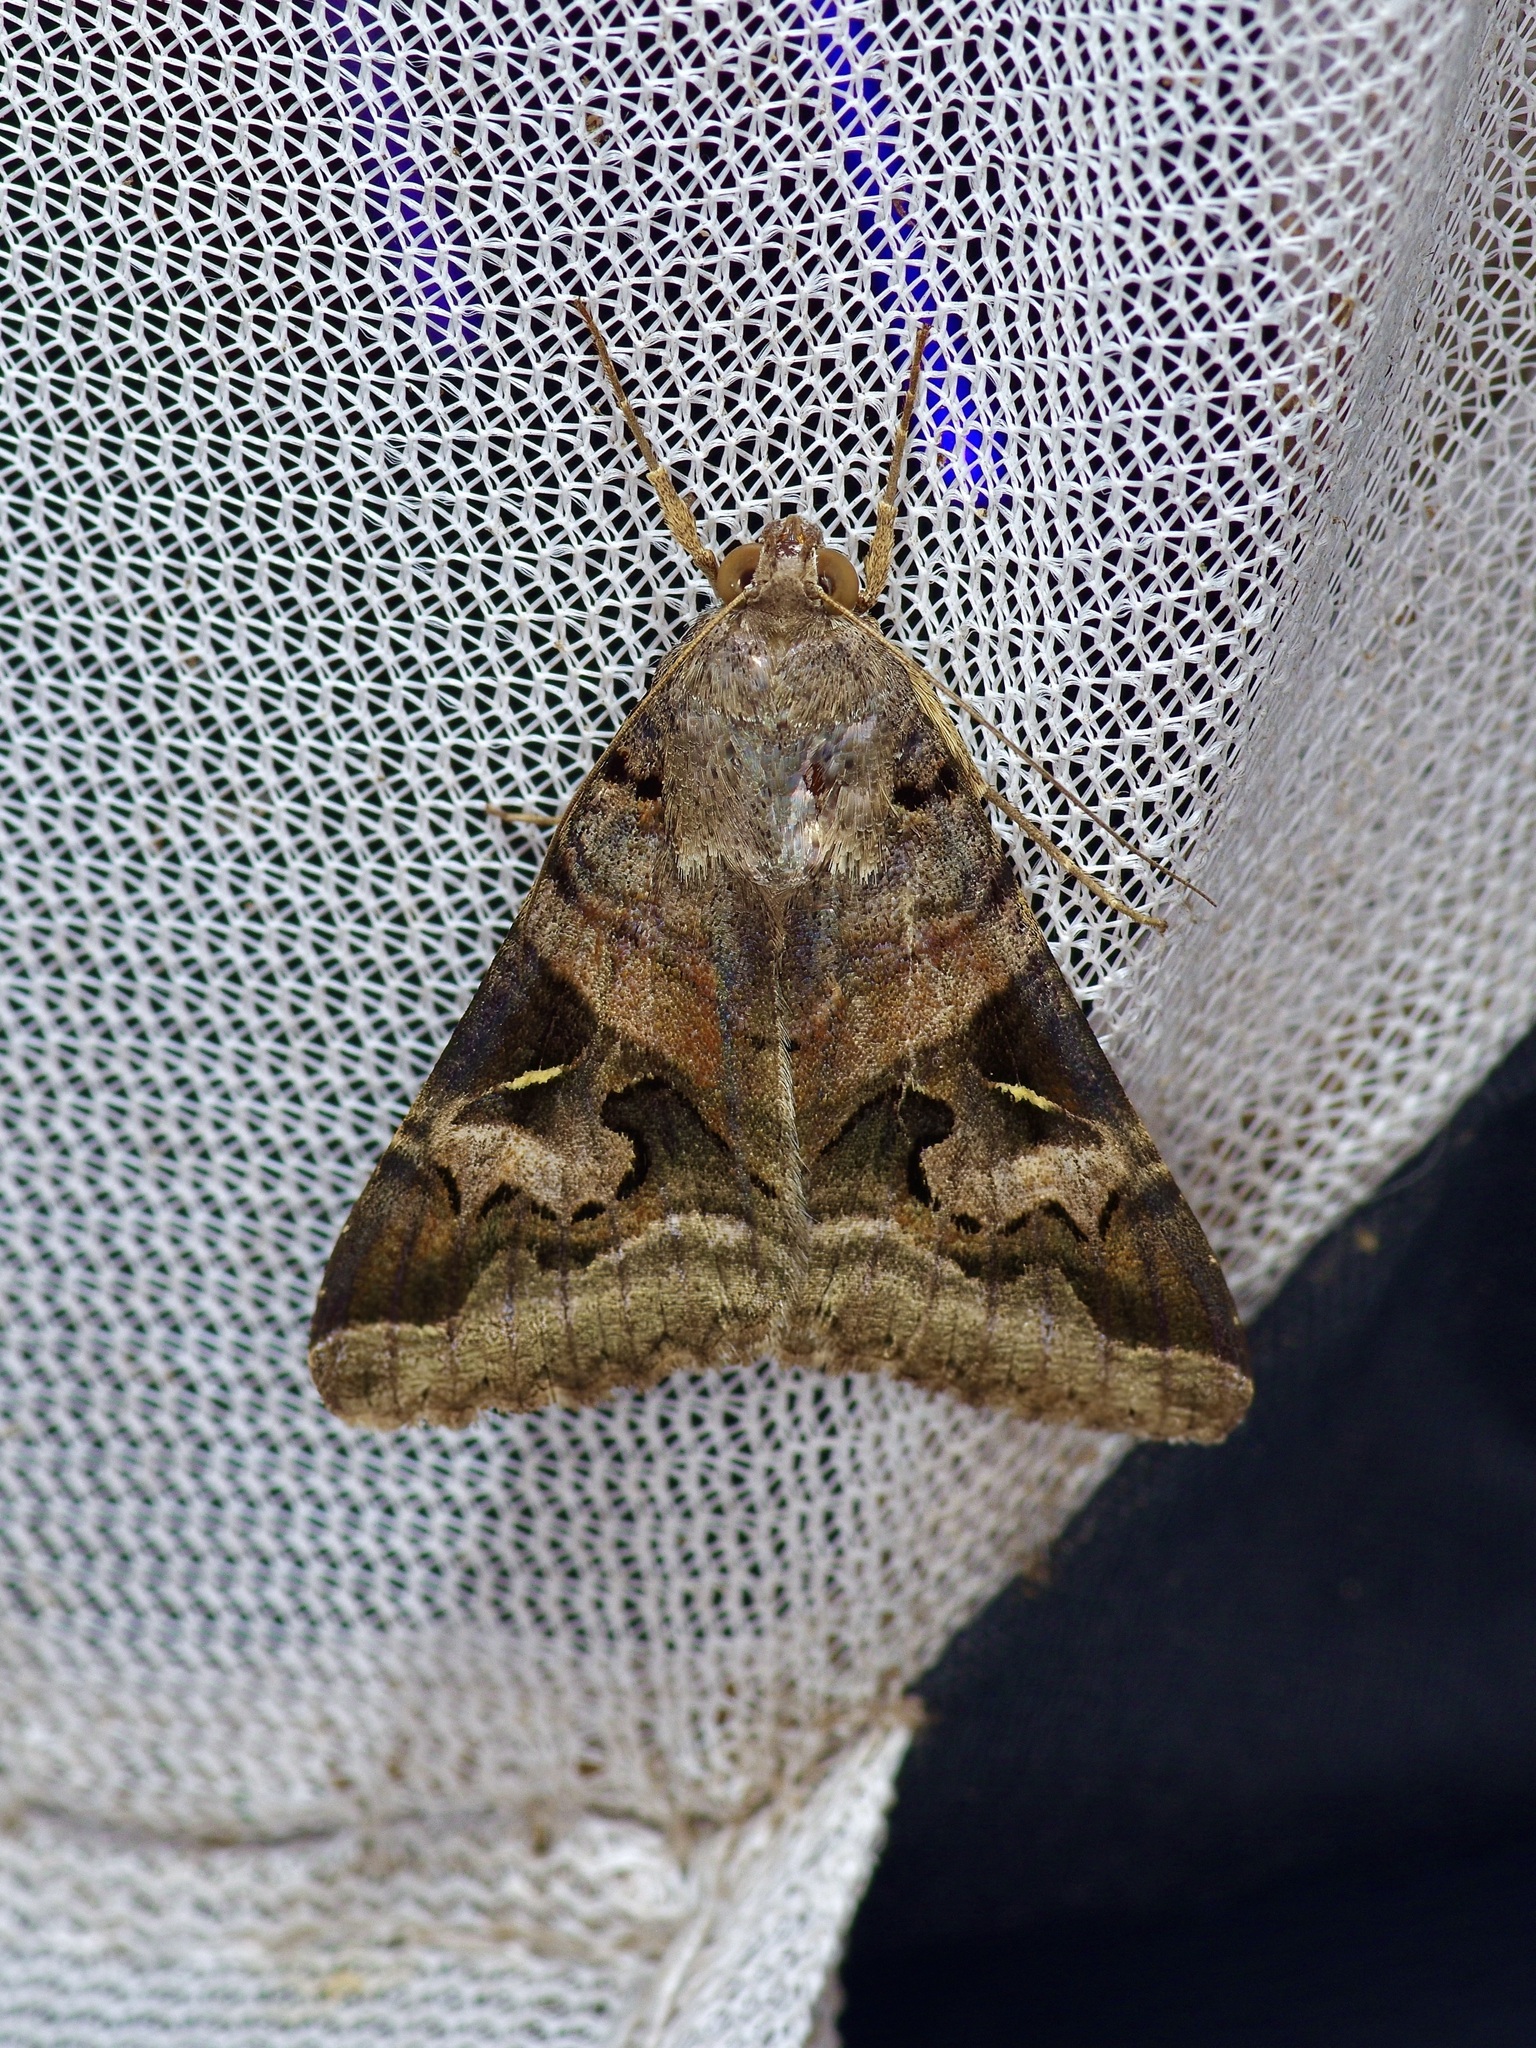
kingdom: Animalia
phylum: Arthropoda
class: Insecta
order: Lepidoptera
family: Erebidae
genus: Melipotis
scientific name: Melipotis indomita
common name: Moth
